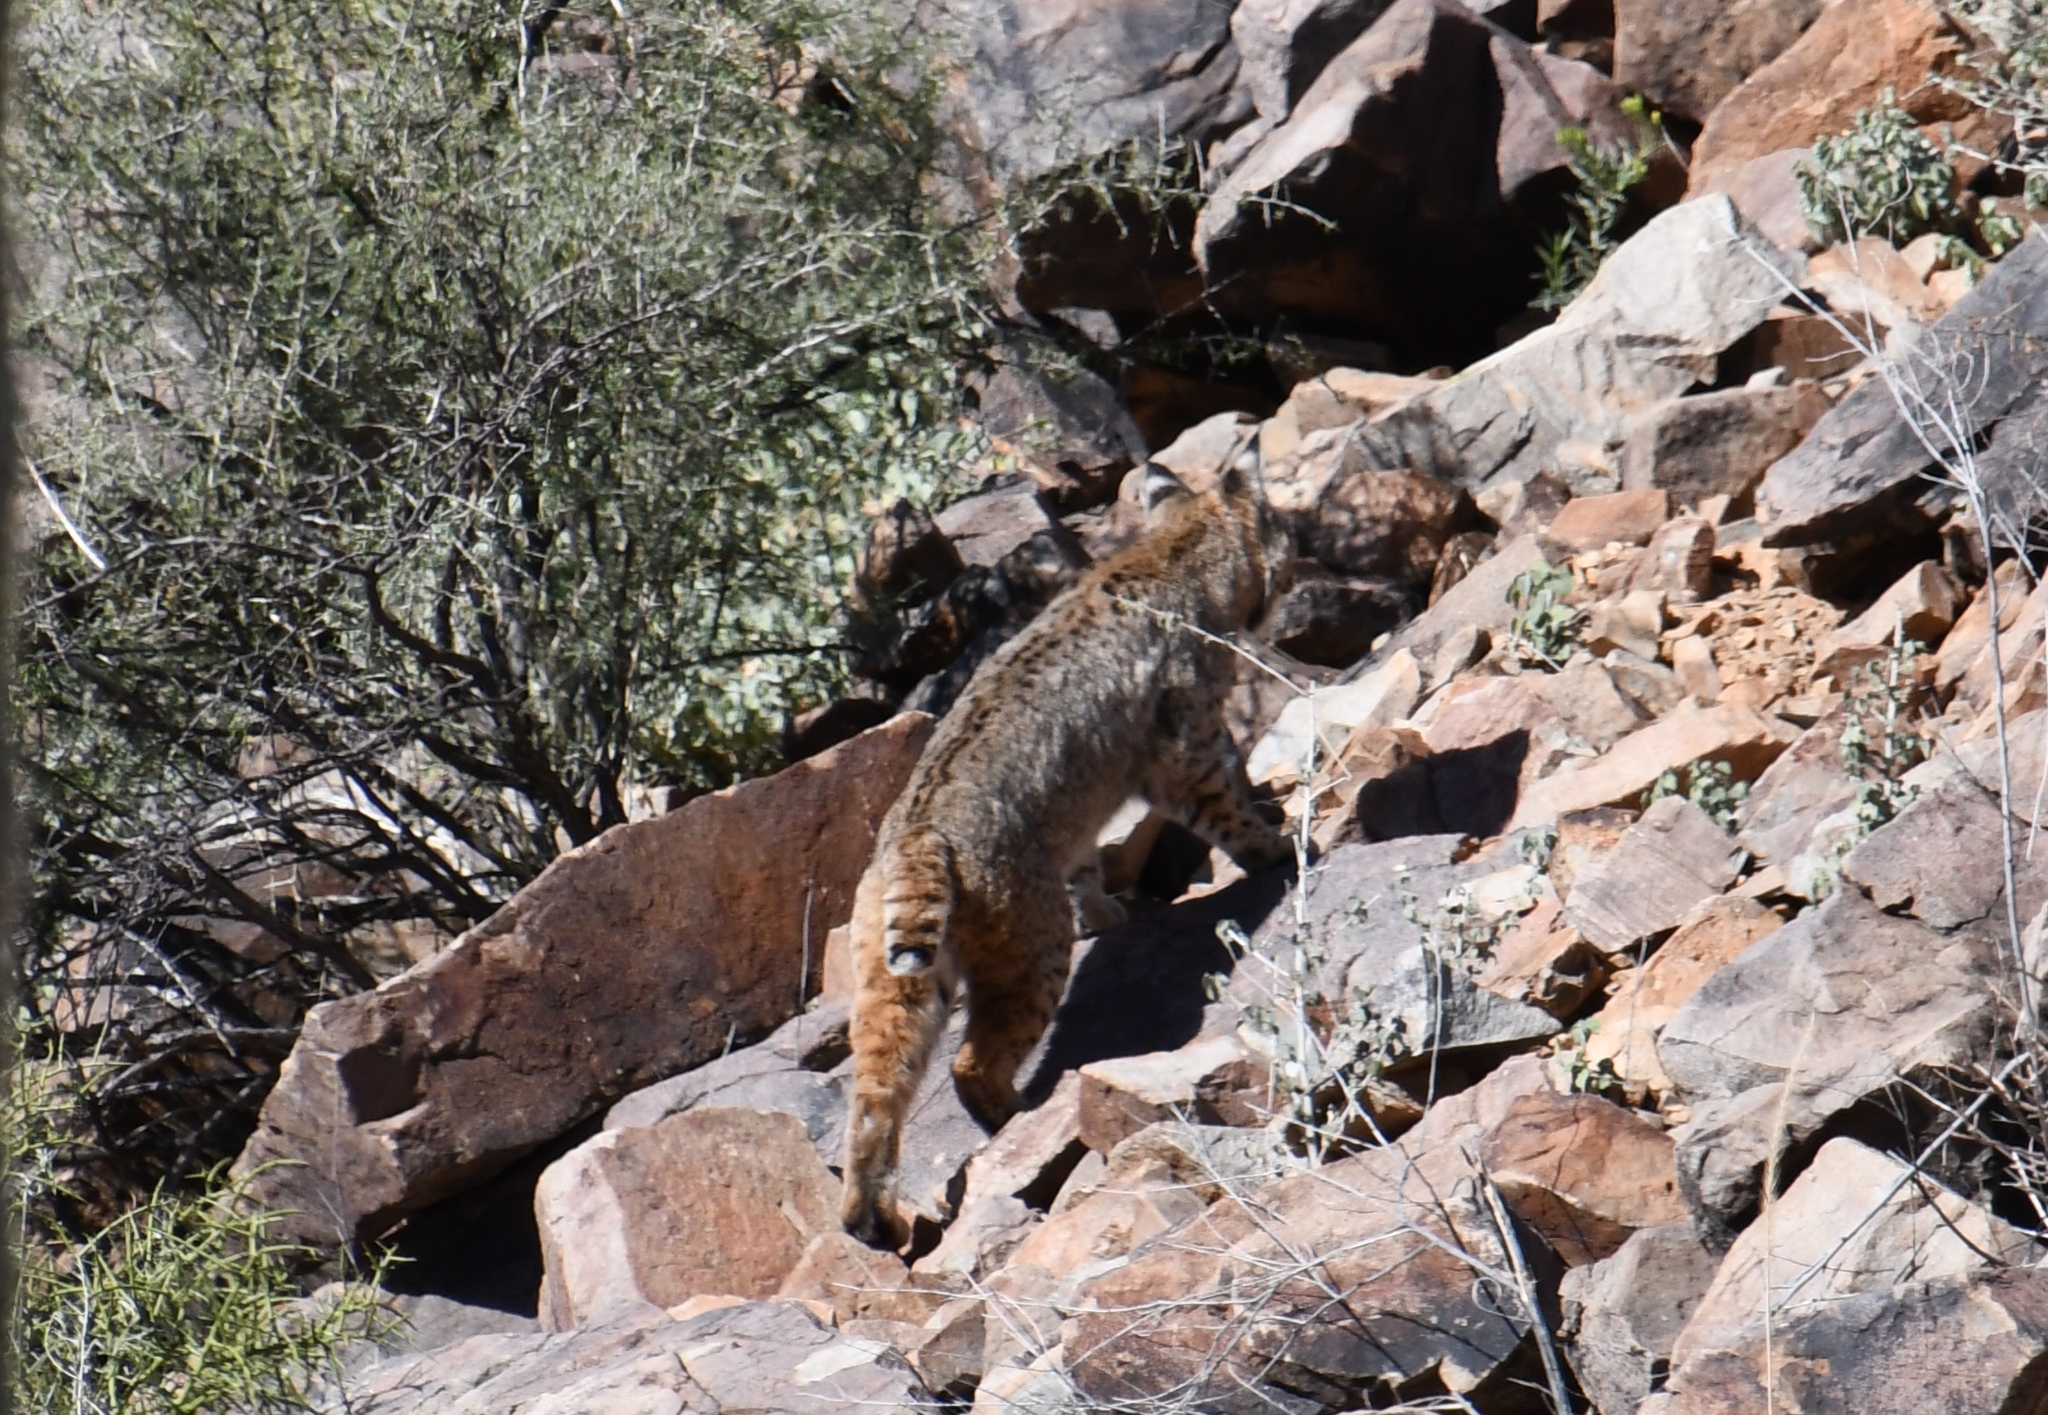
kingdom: Animalia
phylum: Chordata
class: Mammalia
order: Carnivora
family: Felidae
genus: Lynx
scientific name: Lynx rufus
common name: Bobcat
